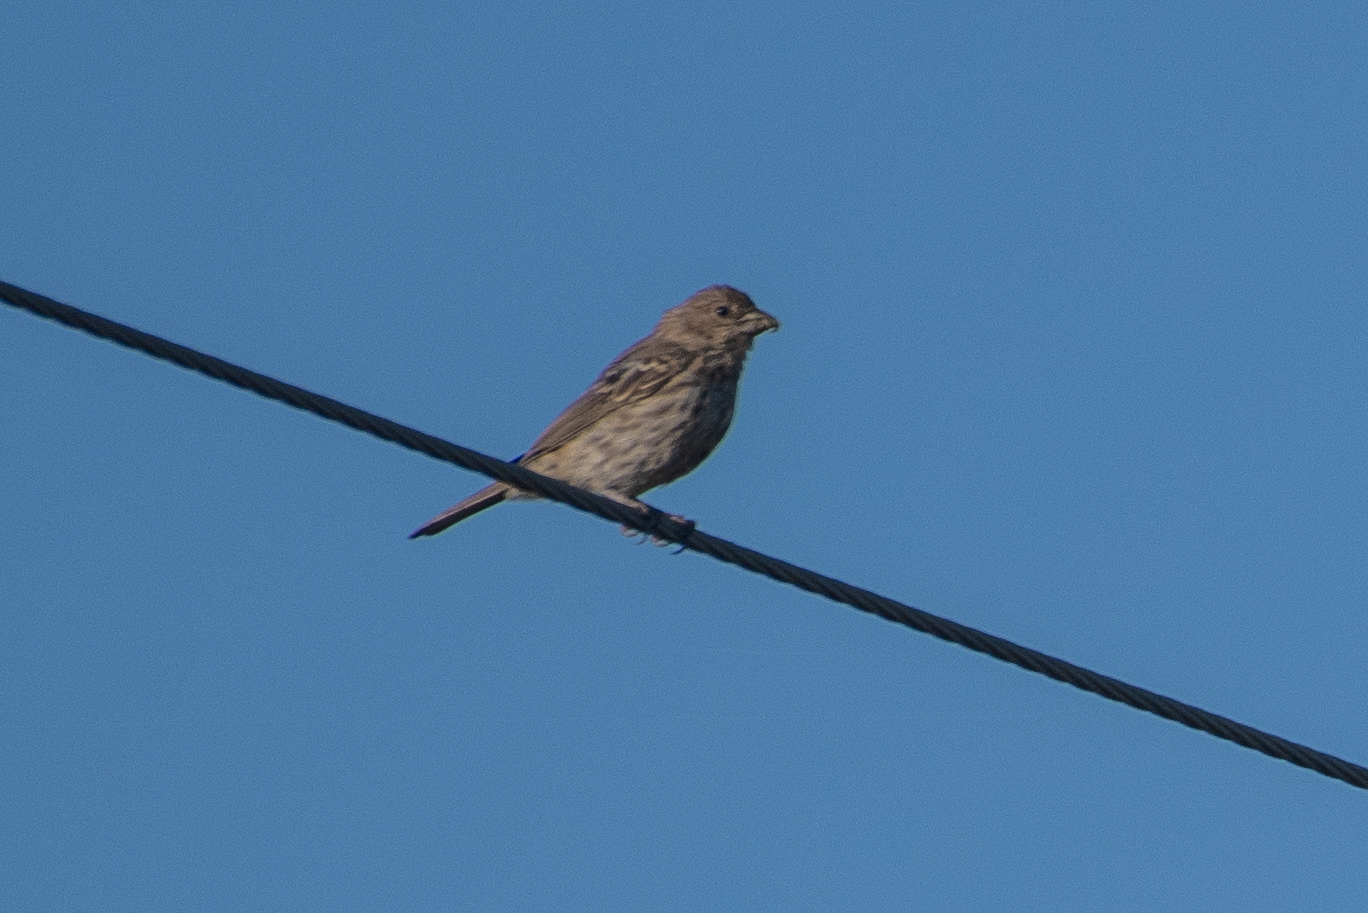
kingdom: Animalia
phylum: Chordata
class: Aves
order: Passeriformes
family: Fringillidae
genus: Haemorhous
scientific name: Haemorhous mexicanus
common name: House finch
